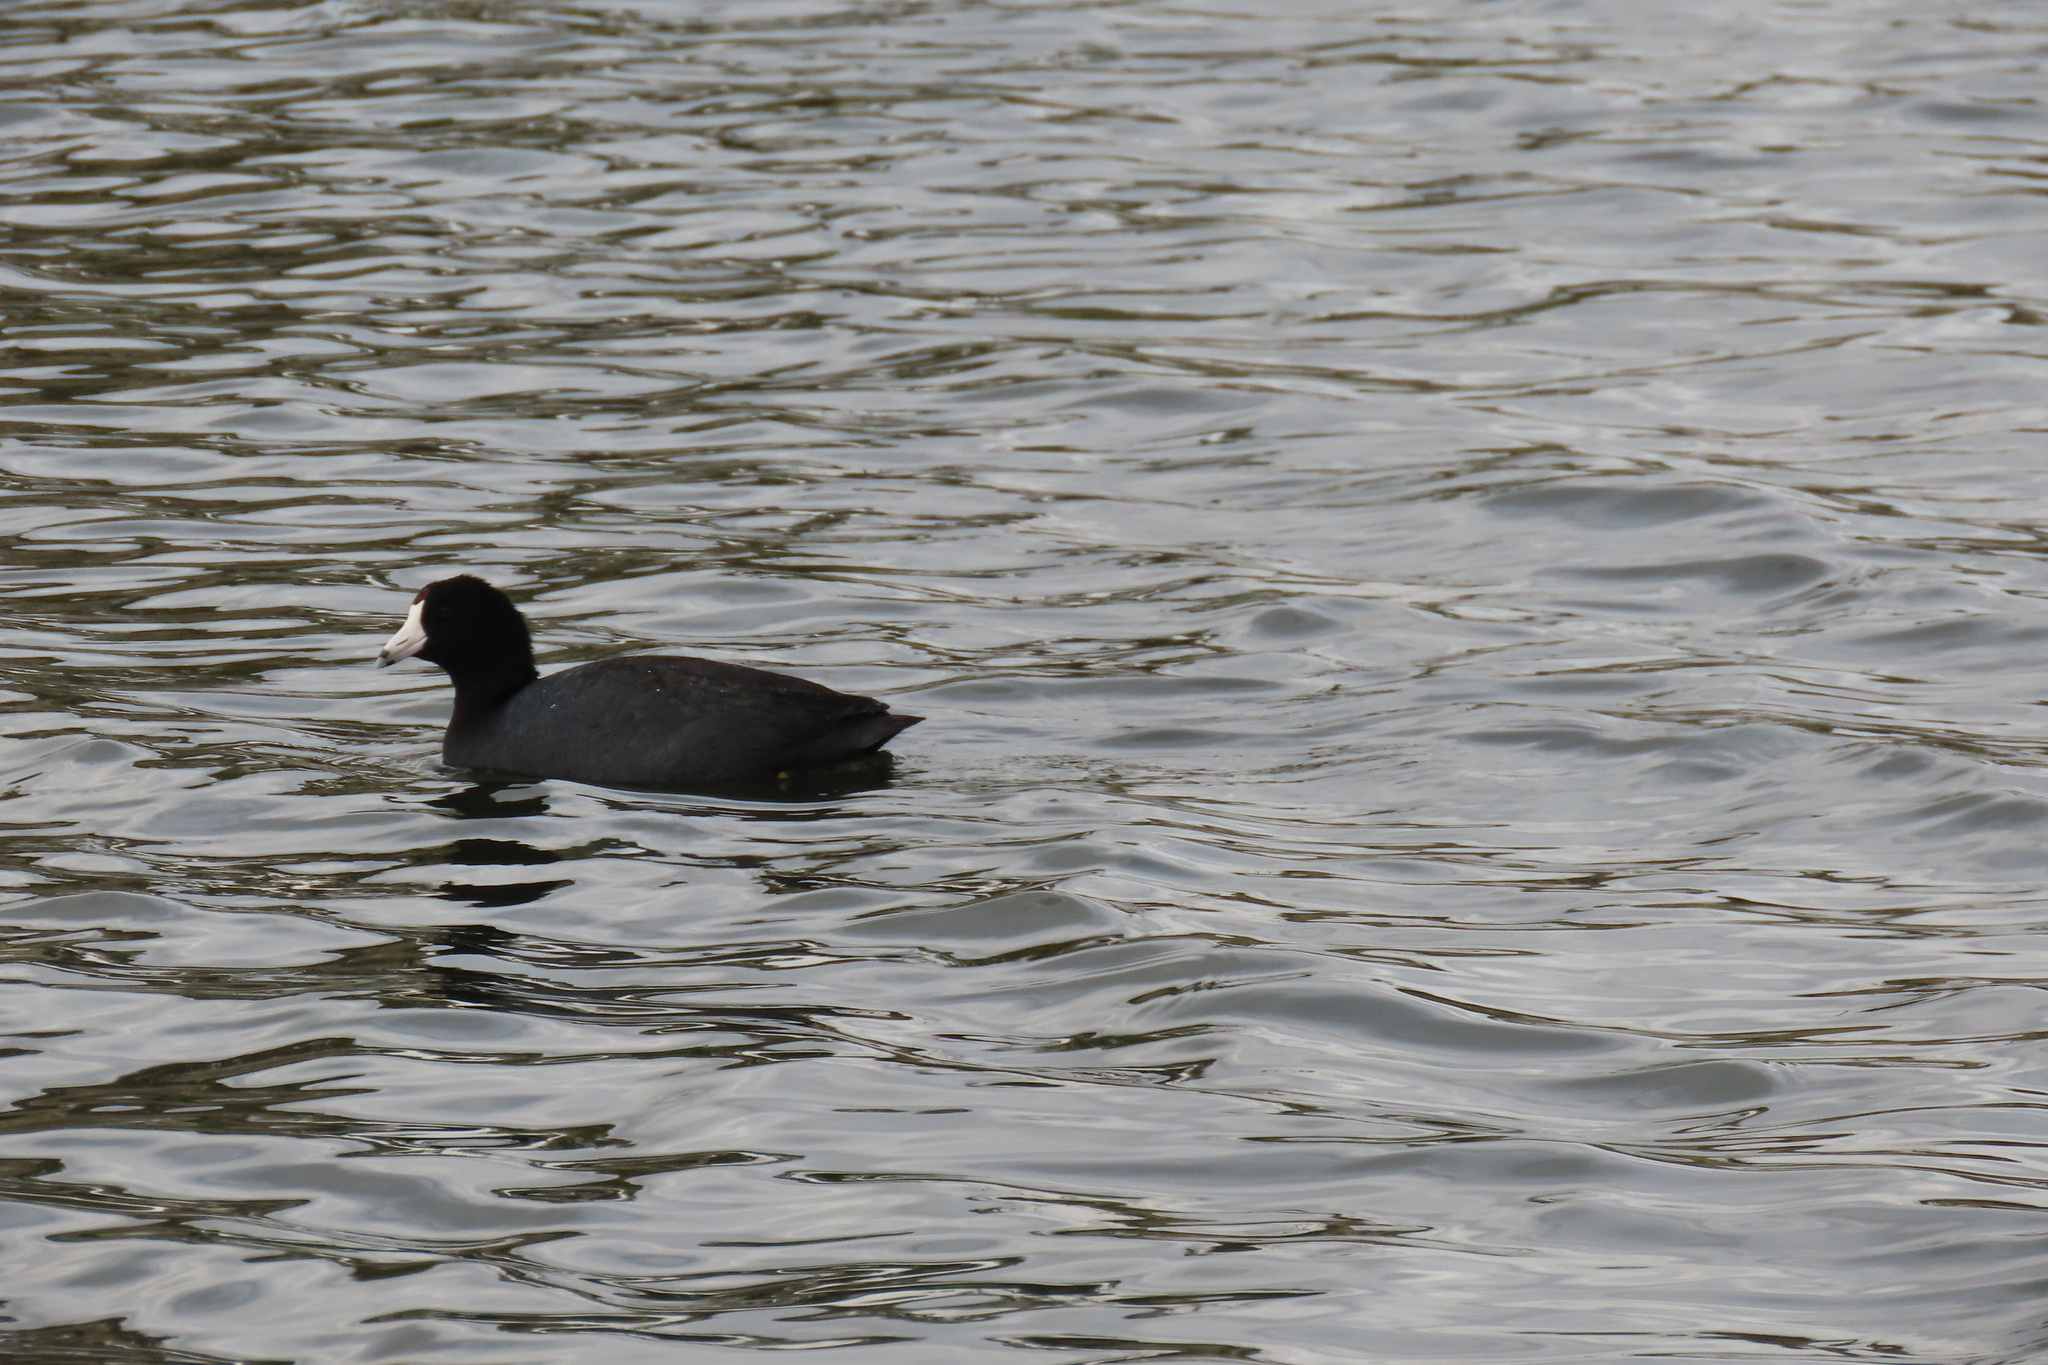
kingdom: Animalia
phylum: Chordata
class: Aves
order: Gruiformes
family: Rallidae
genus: Fulica
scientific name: Fulica americana
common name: American coot
